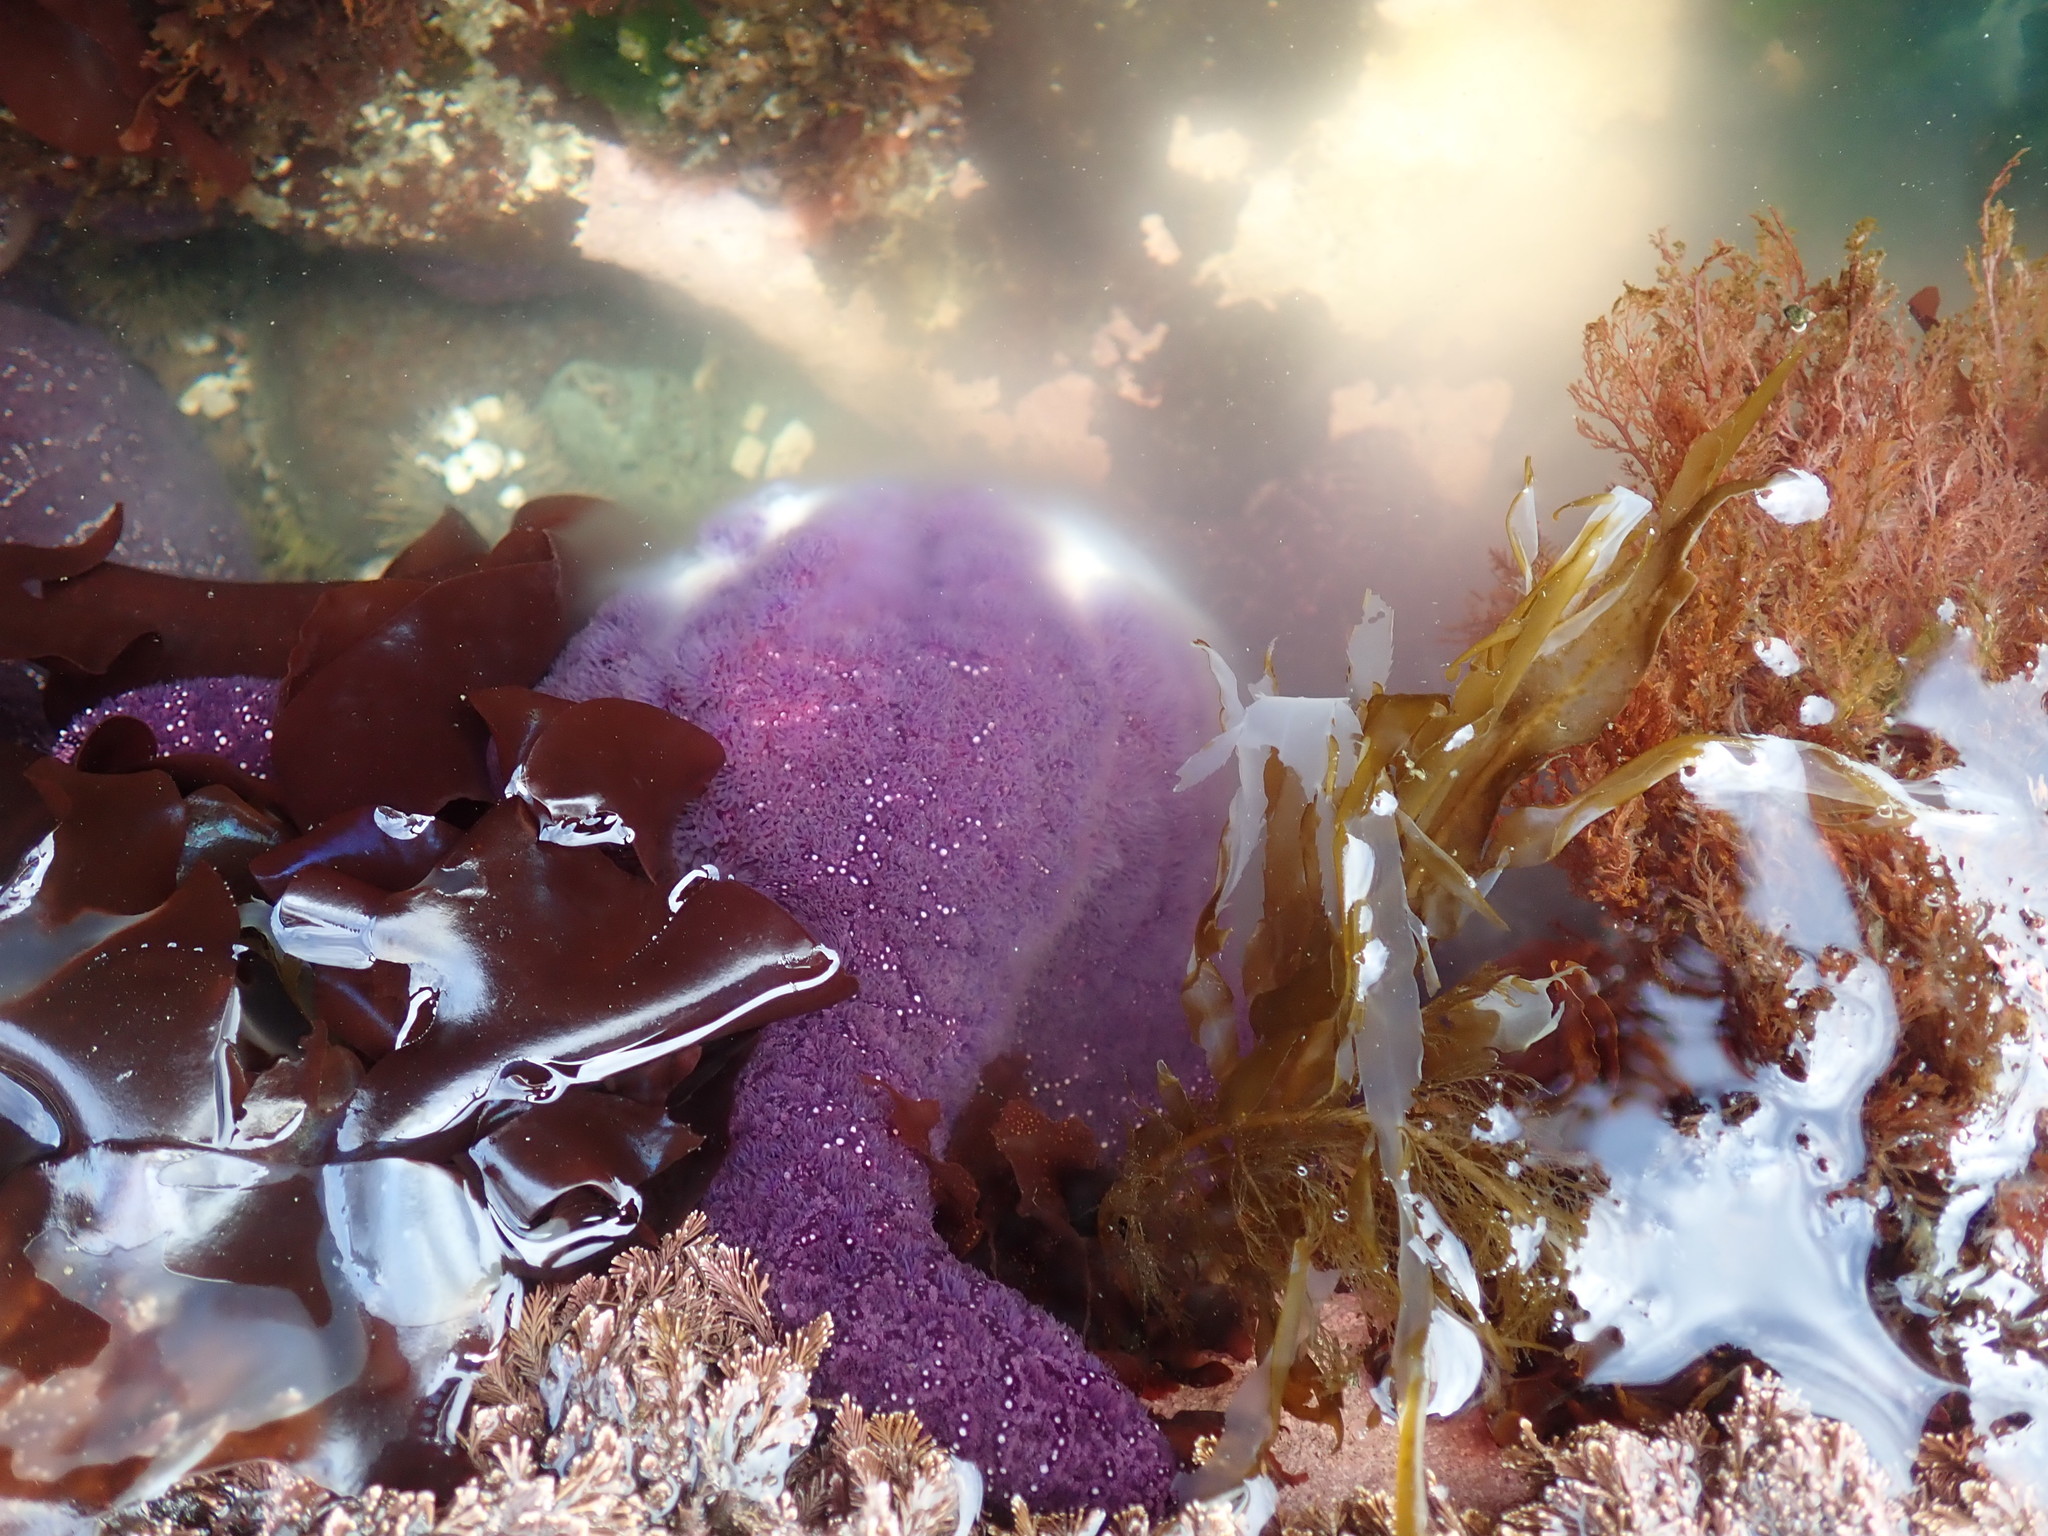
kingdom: Animalia
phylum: Echinodermata
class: Asteroidea
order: Forcipulatida
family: Asteriidae
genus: Pisaster
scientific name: Pisaster ochraceus
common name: Ochre stars
